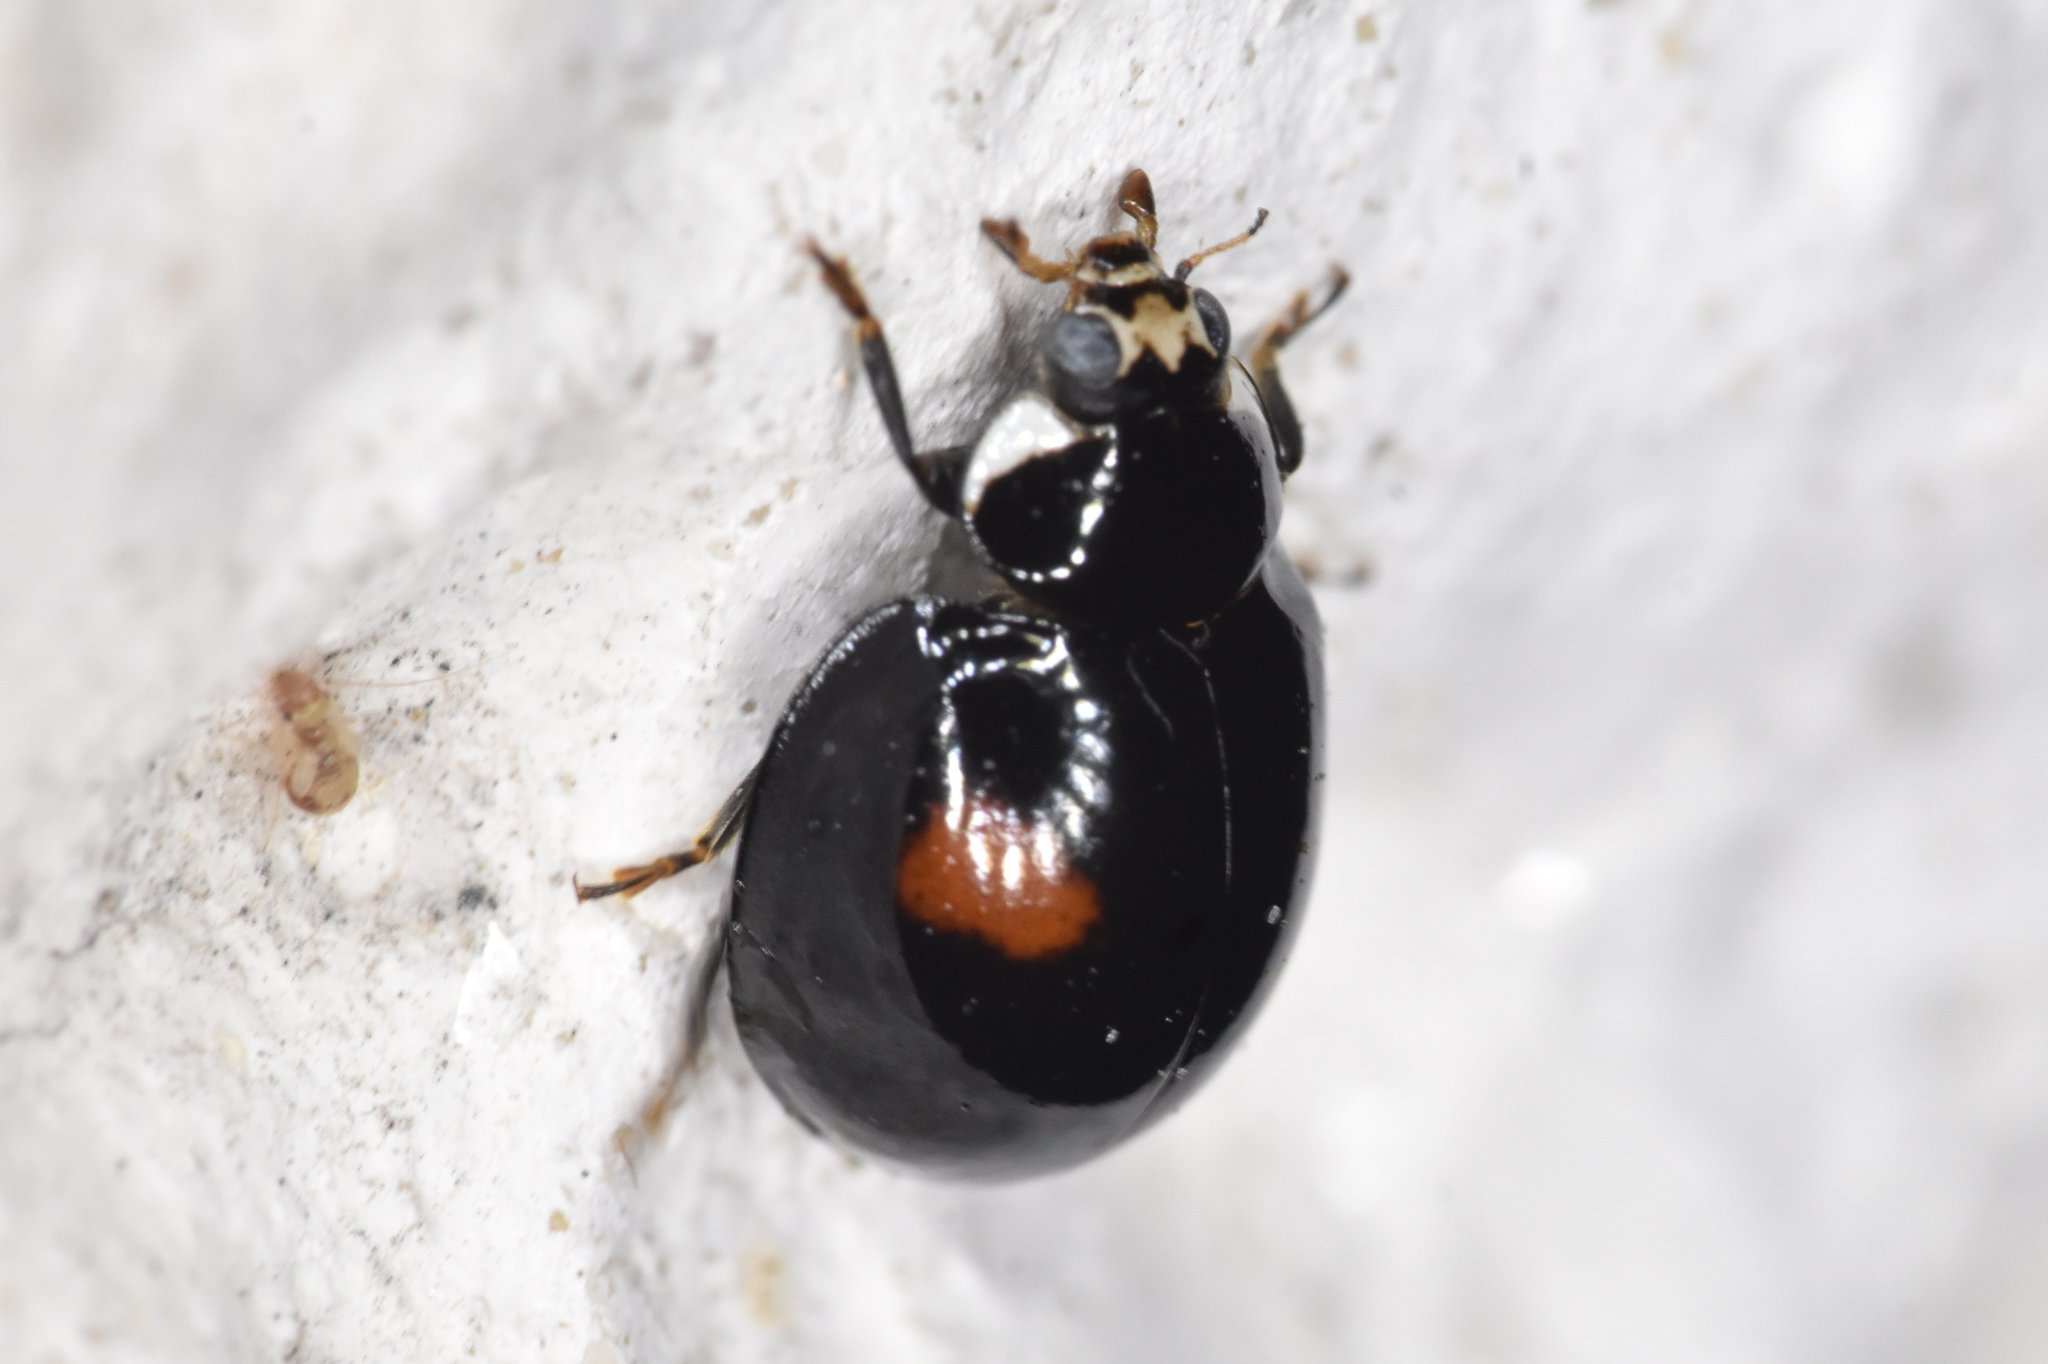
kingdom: Animalia
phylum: Arthropoda
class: Insecta
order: Coleoptera
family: Coccinellidae
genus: Olla
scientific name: Olla v-nigrum
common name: Ashy gray lady beetle
